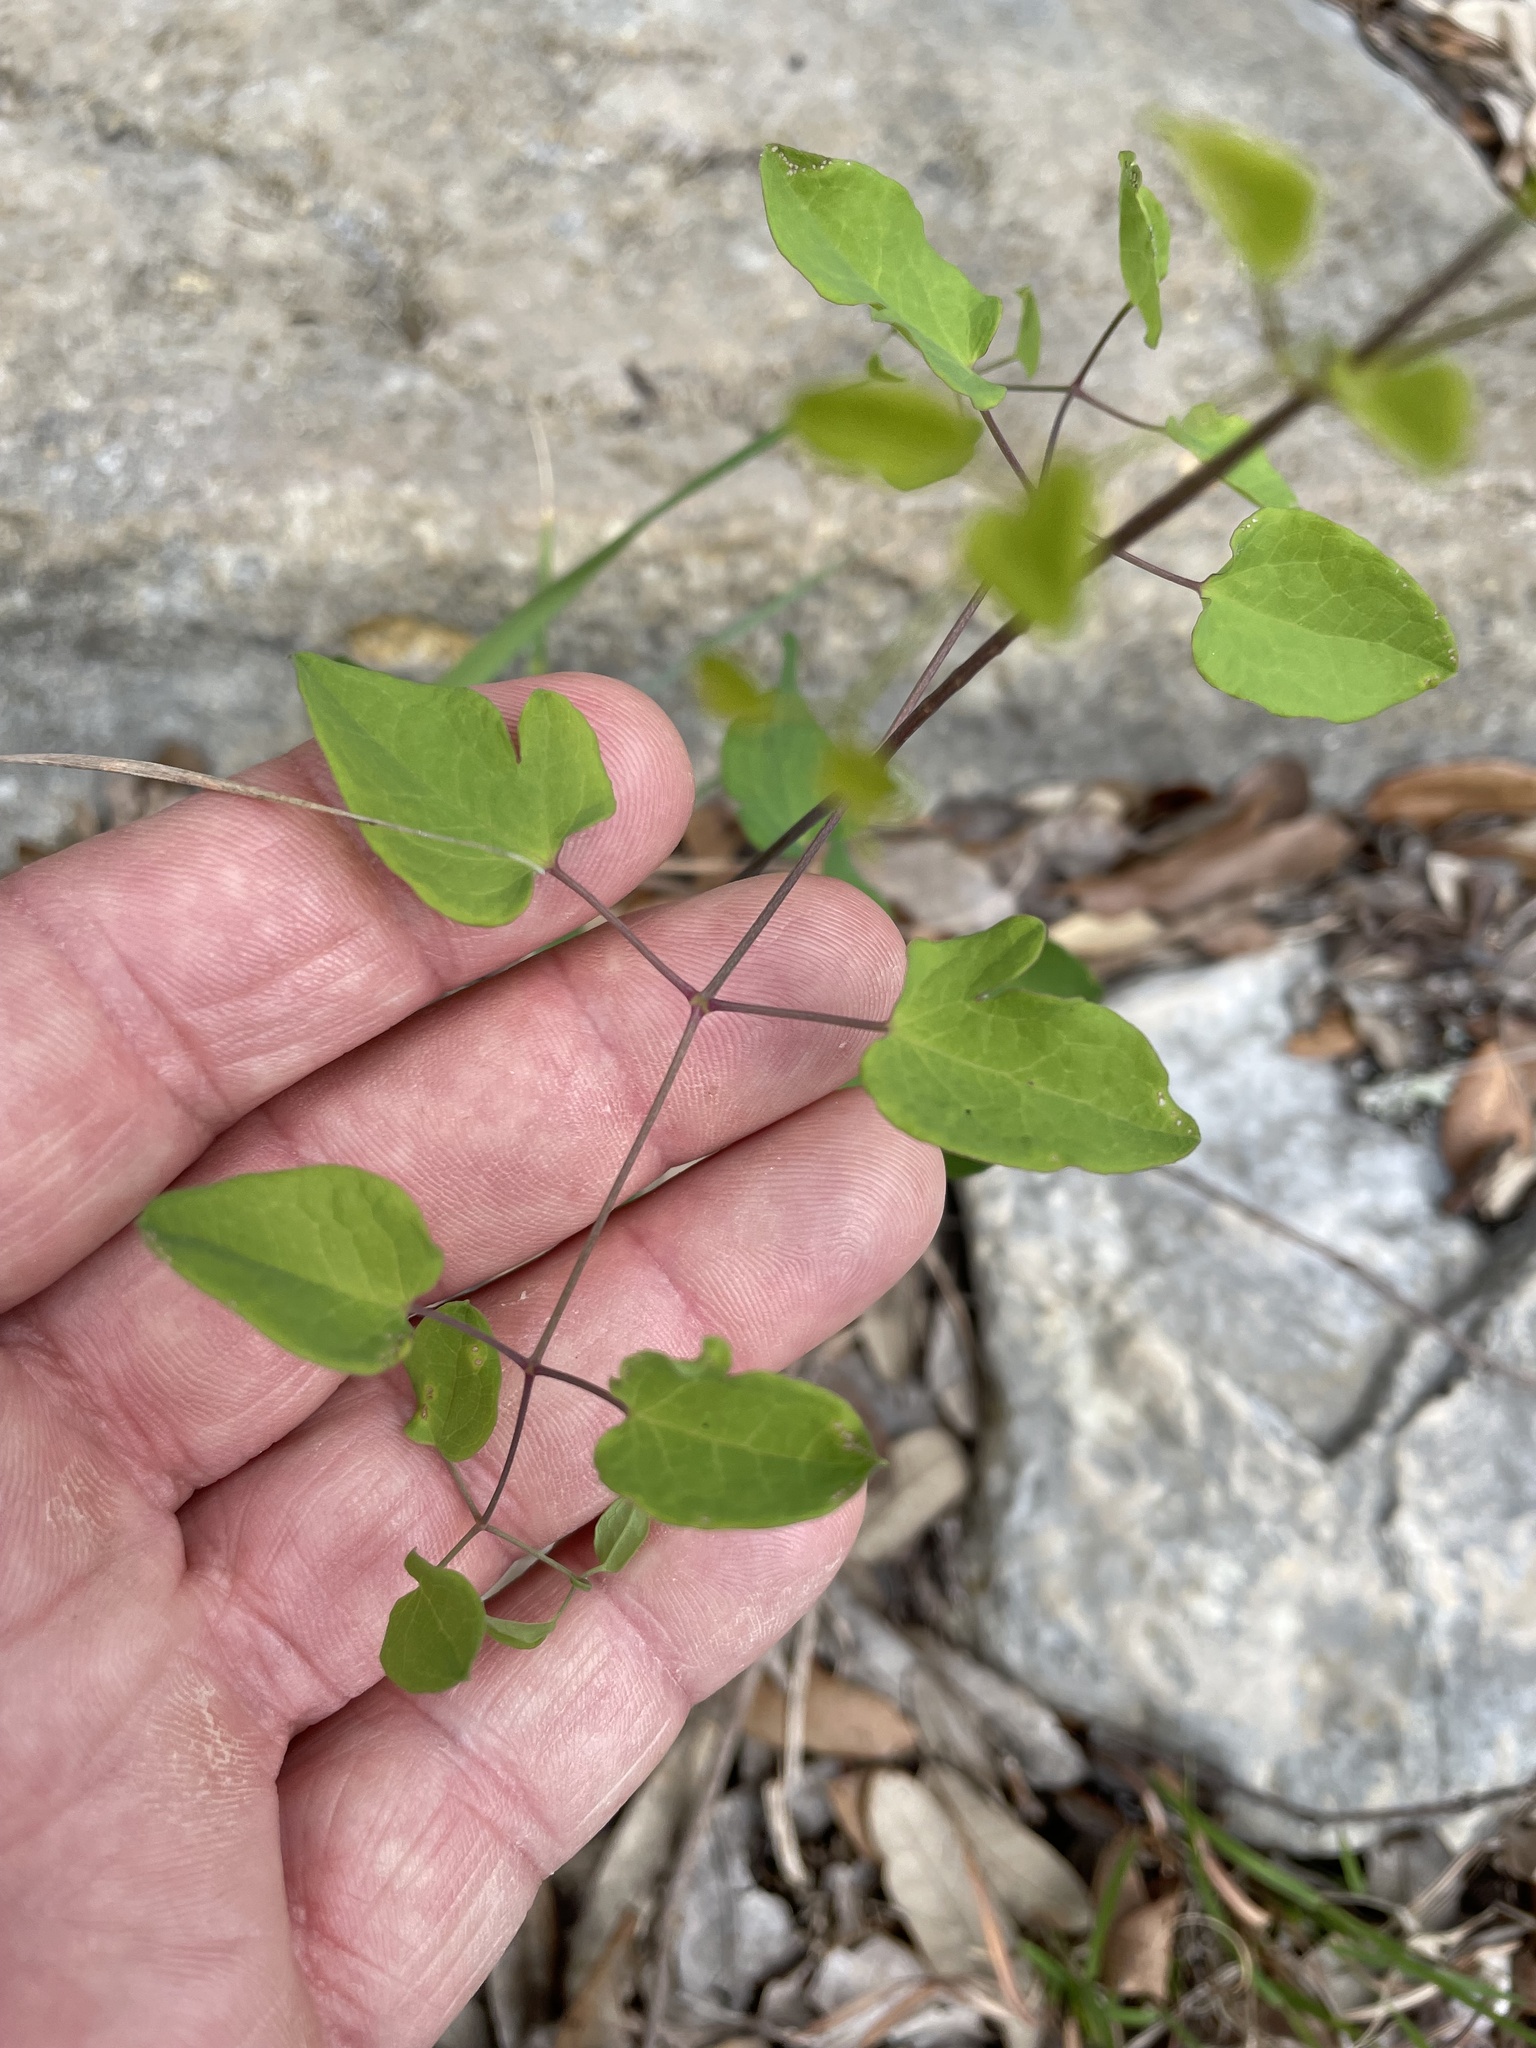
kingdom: Plantae
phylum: Tracheophyta
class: Magnoliopsida
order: Ranunculales
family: Ranunculaceae
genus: Clematis
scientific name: Clematis texensis
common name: Crimson clematis
